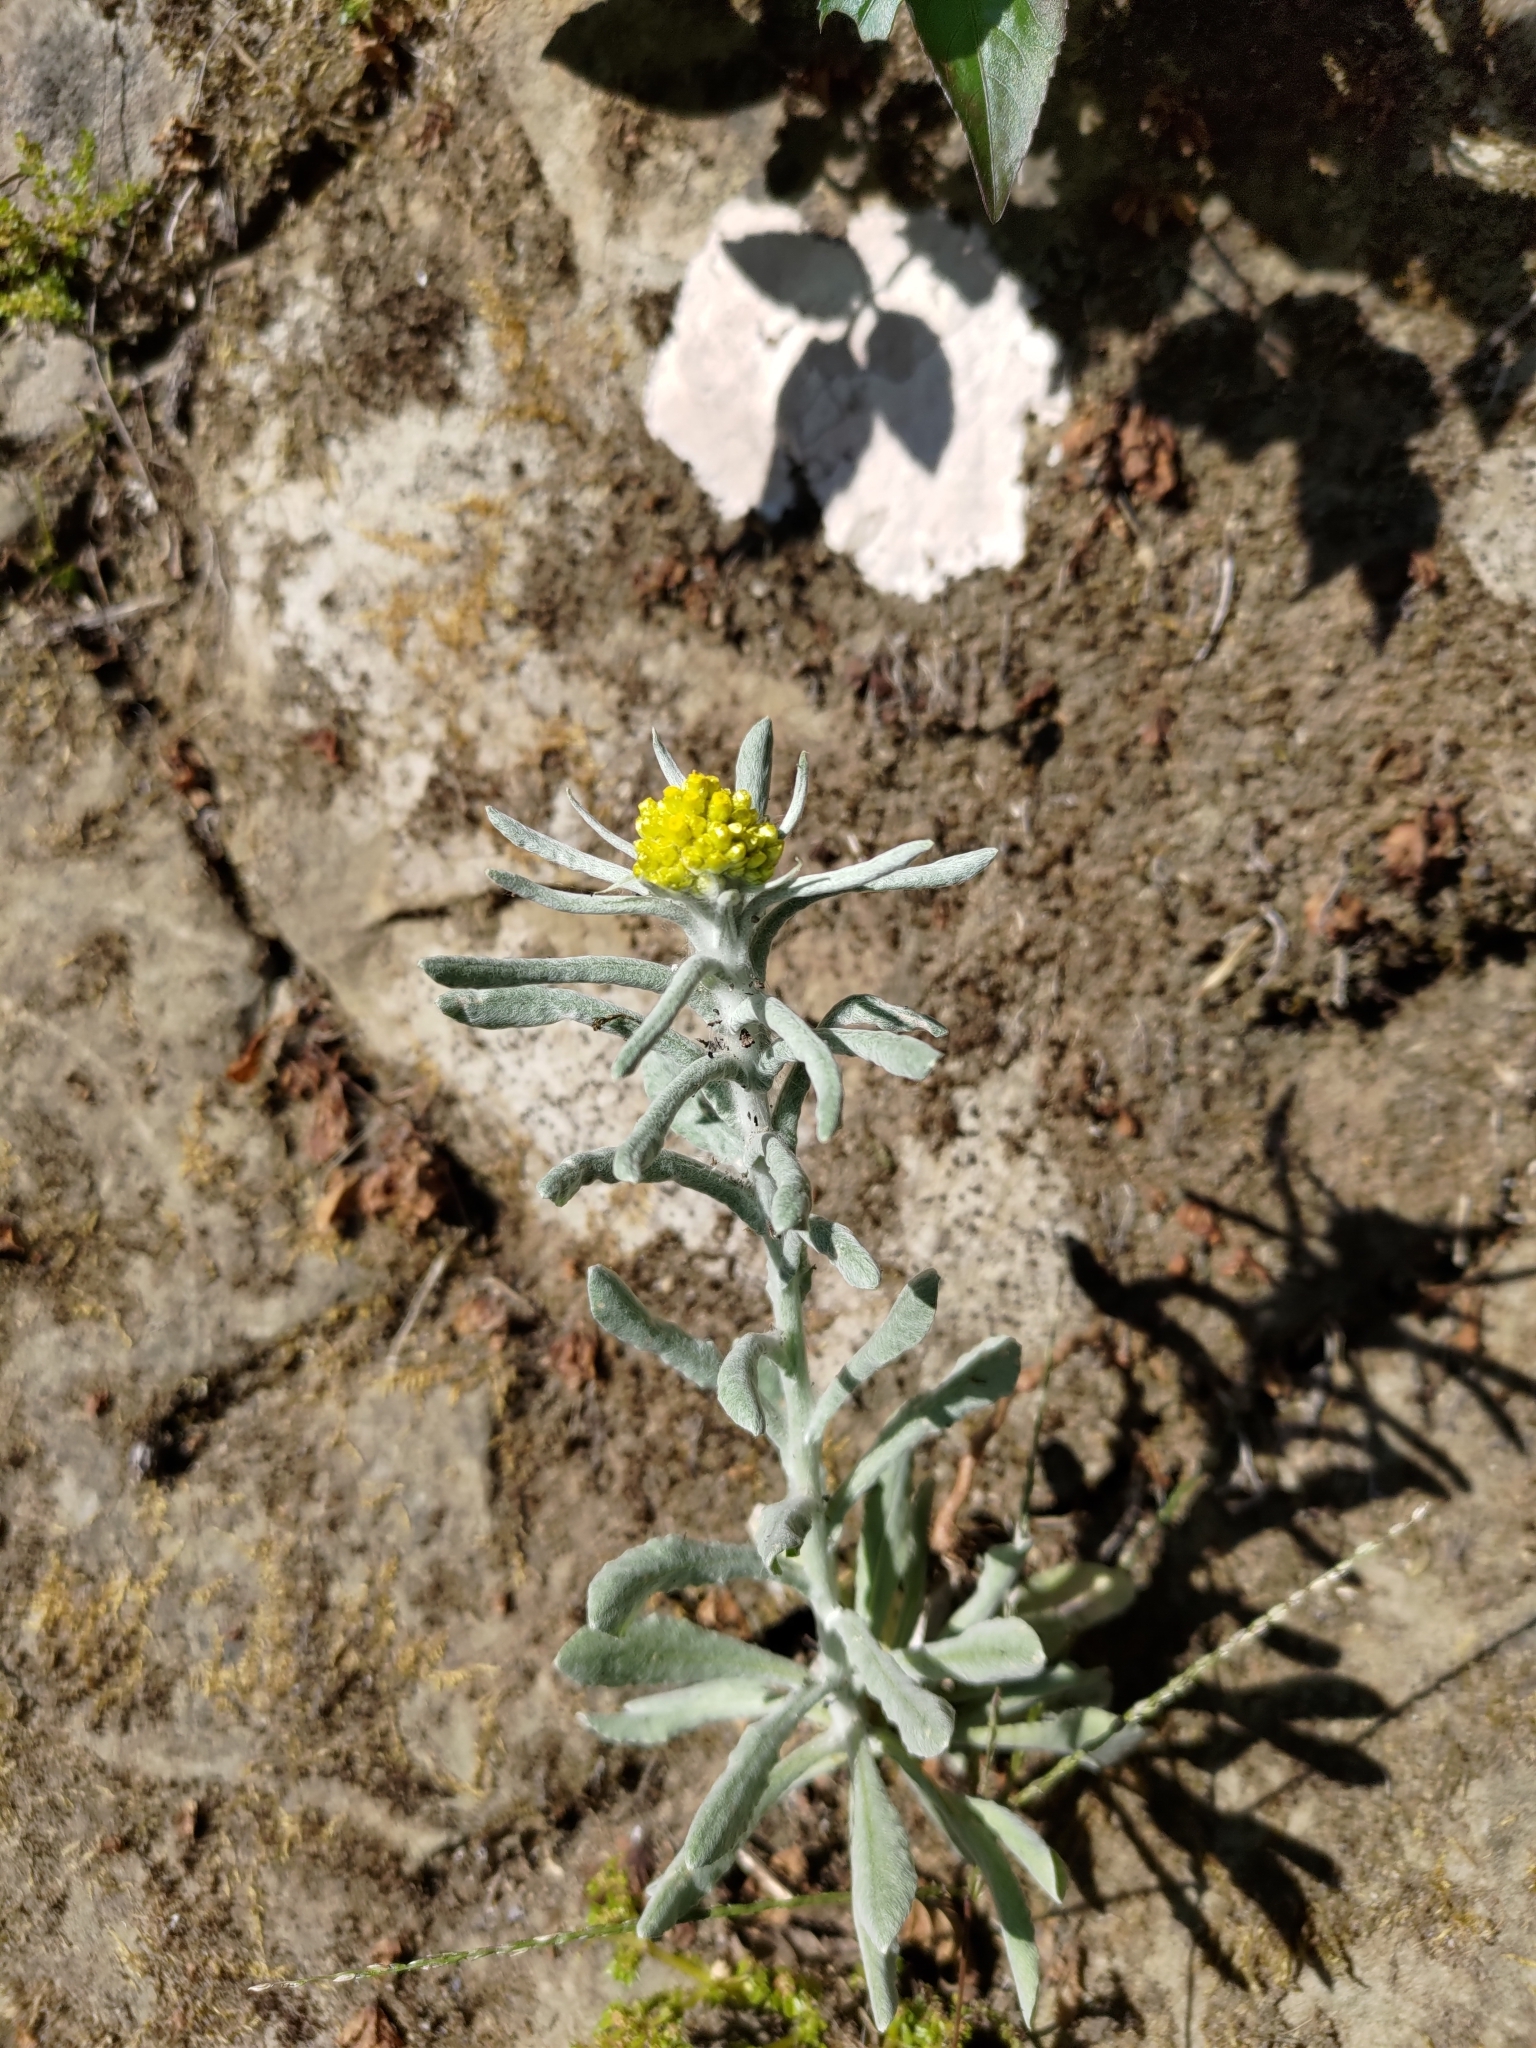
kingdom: Plantae
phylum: Tracheophyta
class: Magnoliopsida
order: Asterales
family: Asteraceae
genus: Pseudognaphalium
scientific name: Pseudognaphalium affine
